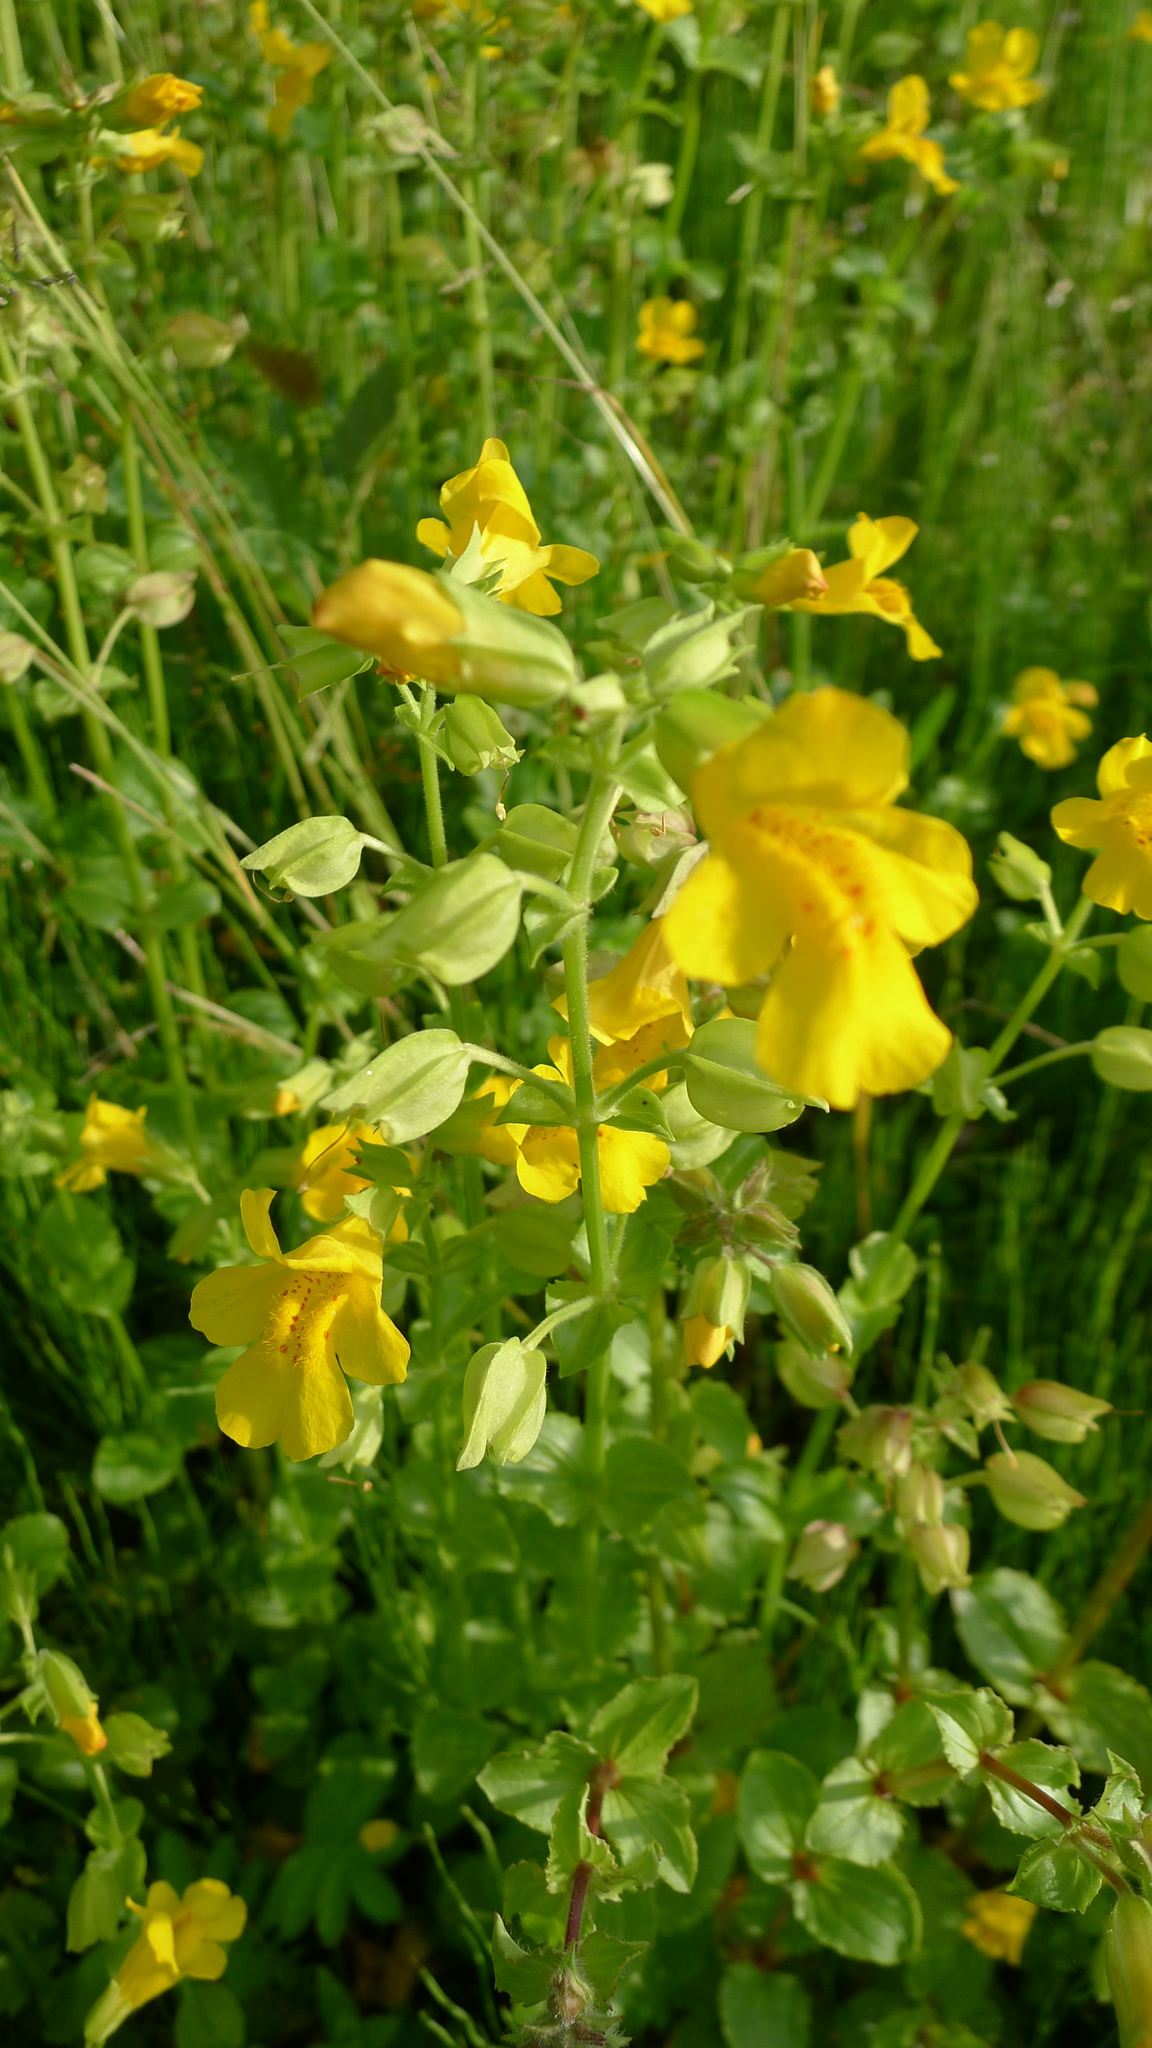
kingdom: Plantae
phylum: Tracheophyta
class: Magnoliopsida
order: Lamiales
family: Phrymaceae
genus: Erythranthe
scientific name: Erythranthe guttata
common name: Monkeyflower
